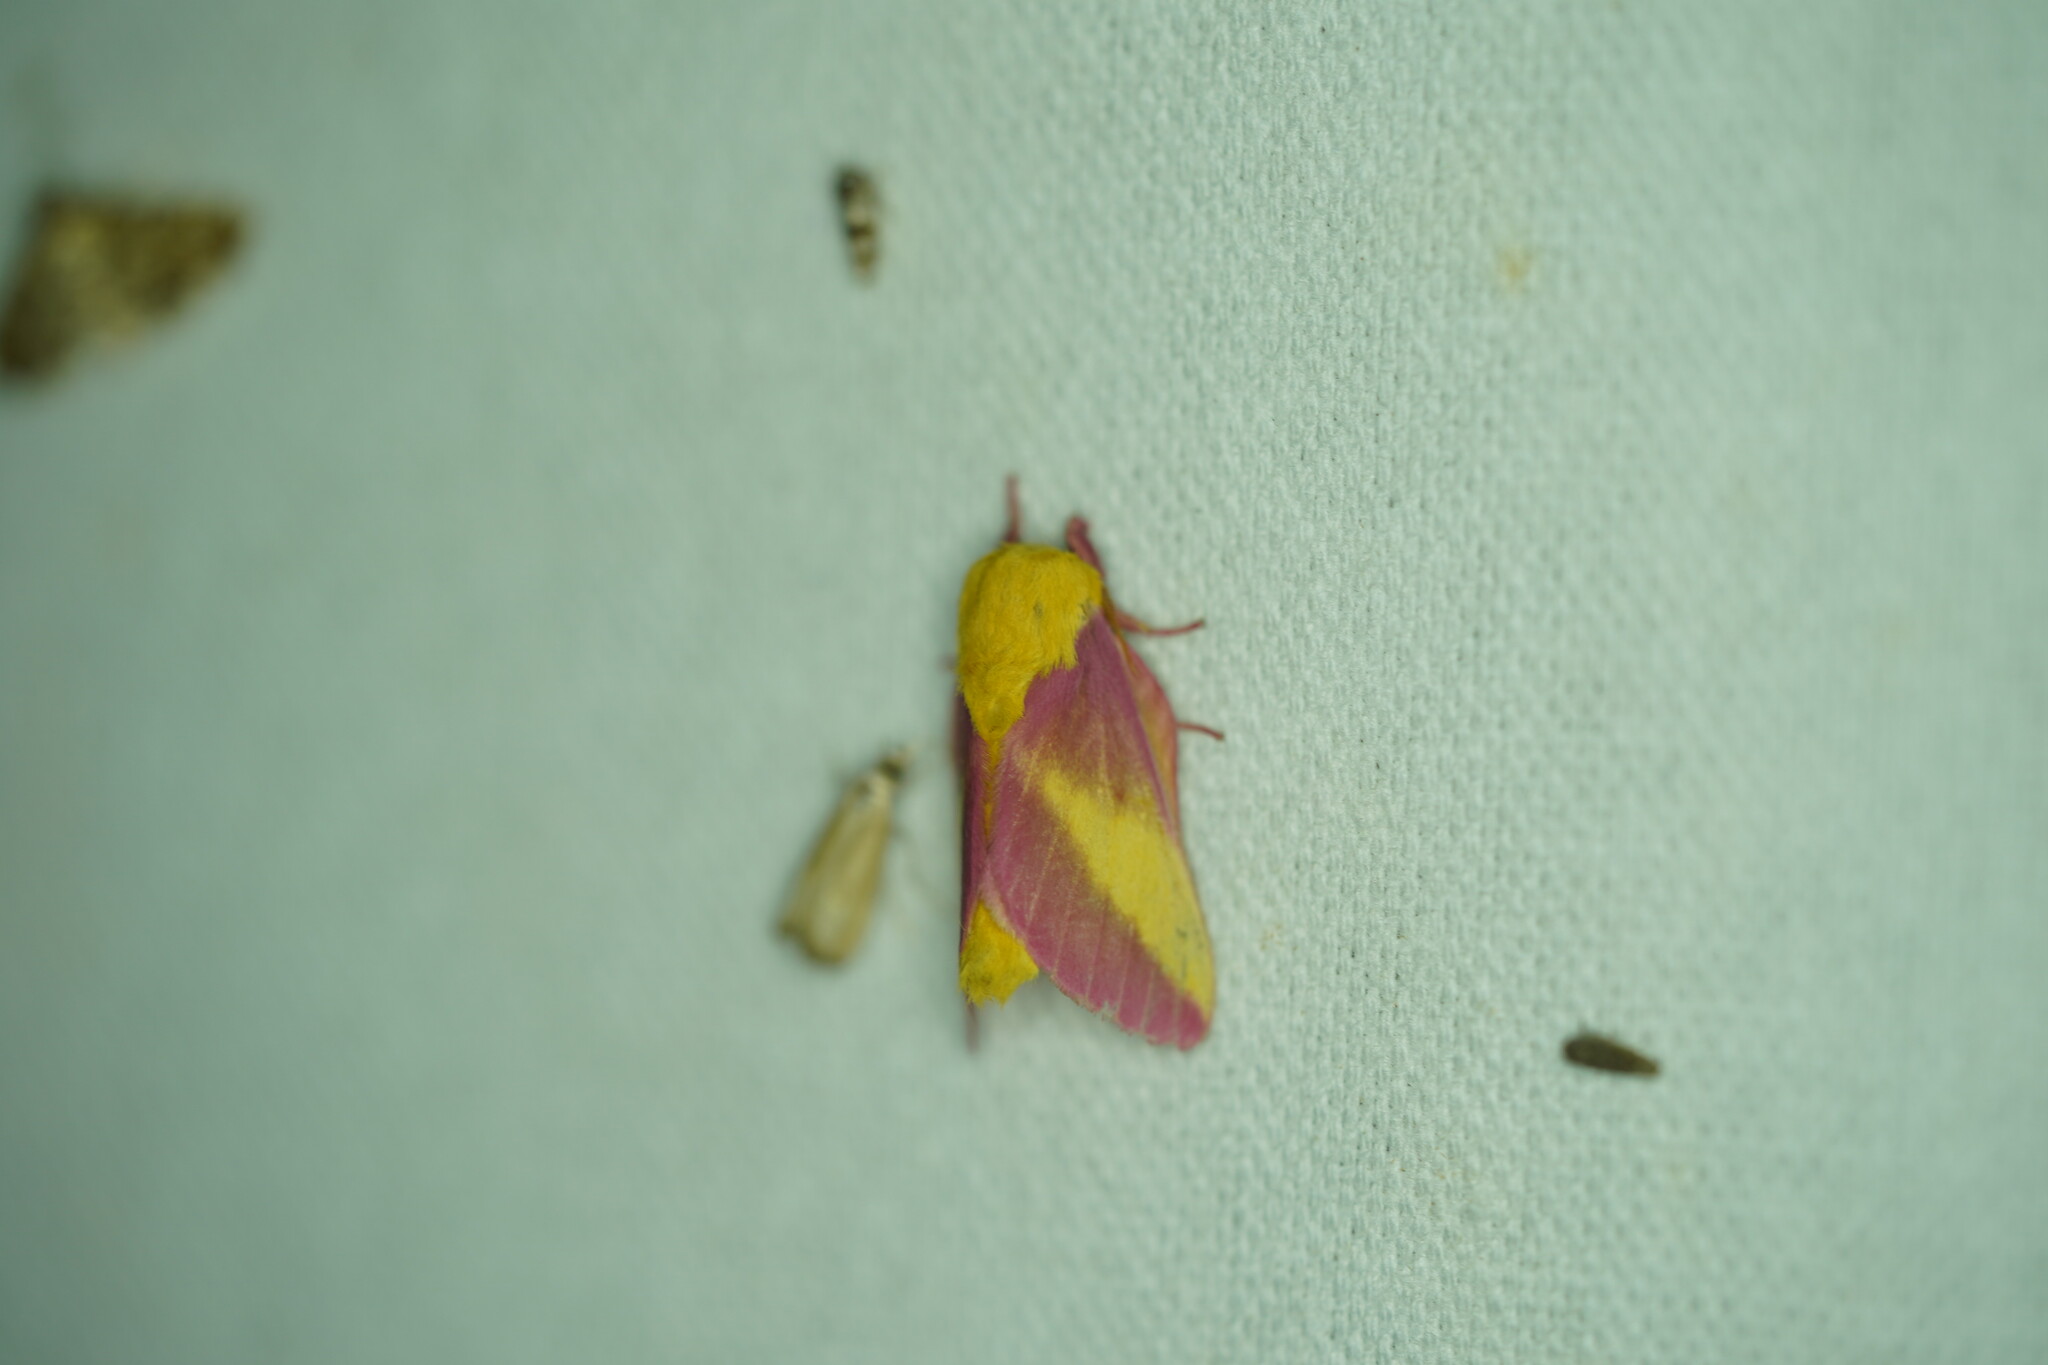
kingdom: Animalia
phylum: Arthropoda
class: Insecta
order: Lepidoptera
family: Saturniidae
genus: Dryocampa
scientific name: Dryocampa rubicunda
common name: Rosy maple moth
